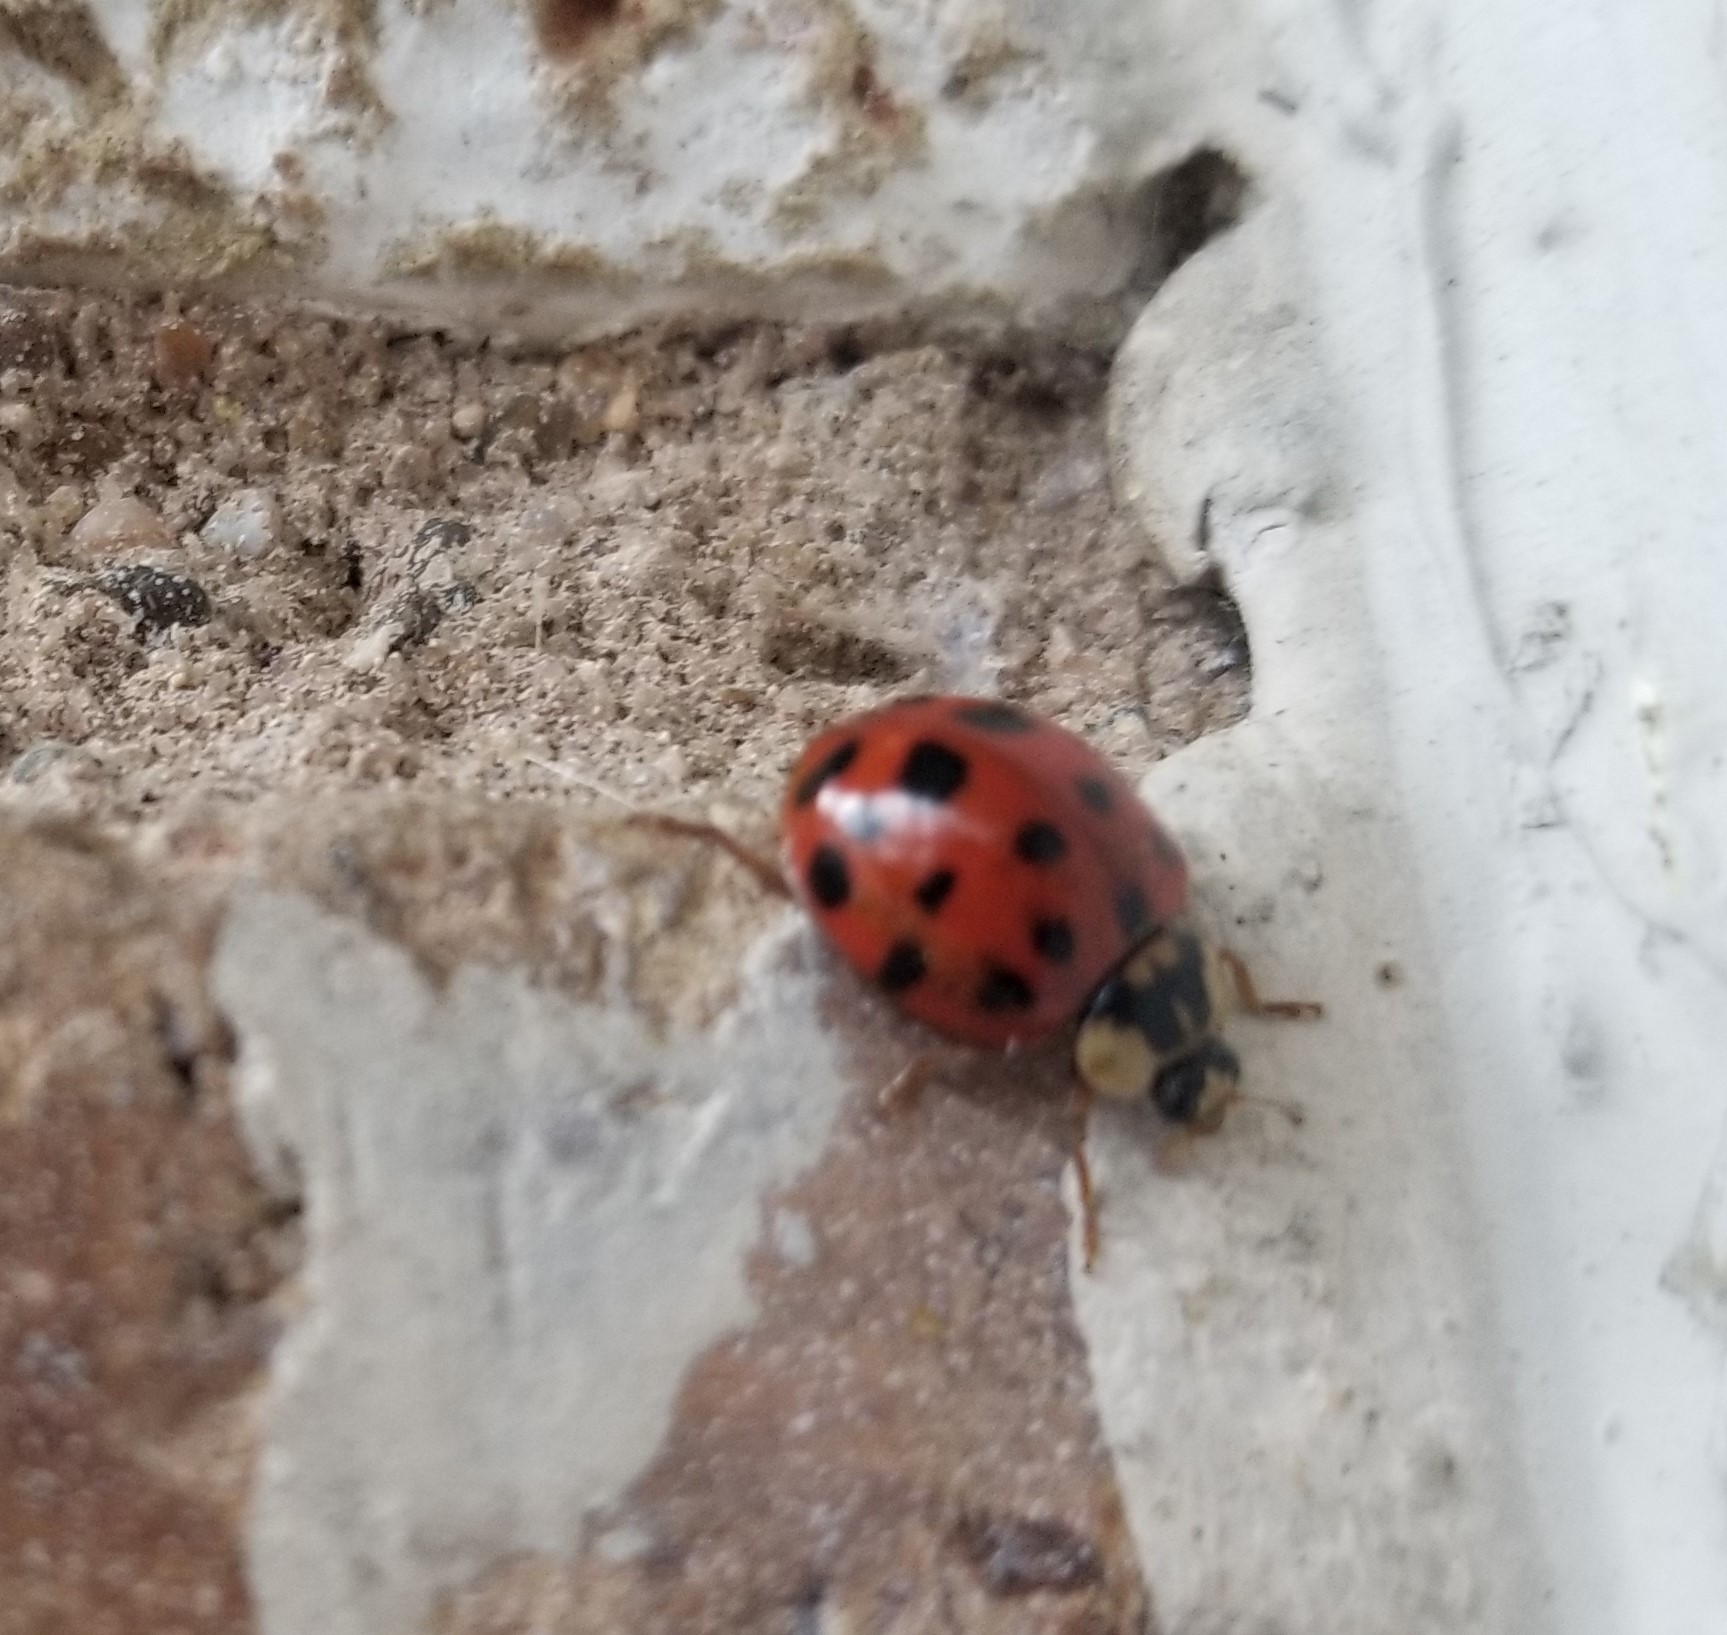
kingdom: Animalia
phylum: Arthropoda
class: Insecta
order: Coleoptera
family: Coccinellidae
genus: Harmonia
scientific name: Harmonia axyridis
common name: Harlequin ladybird
